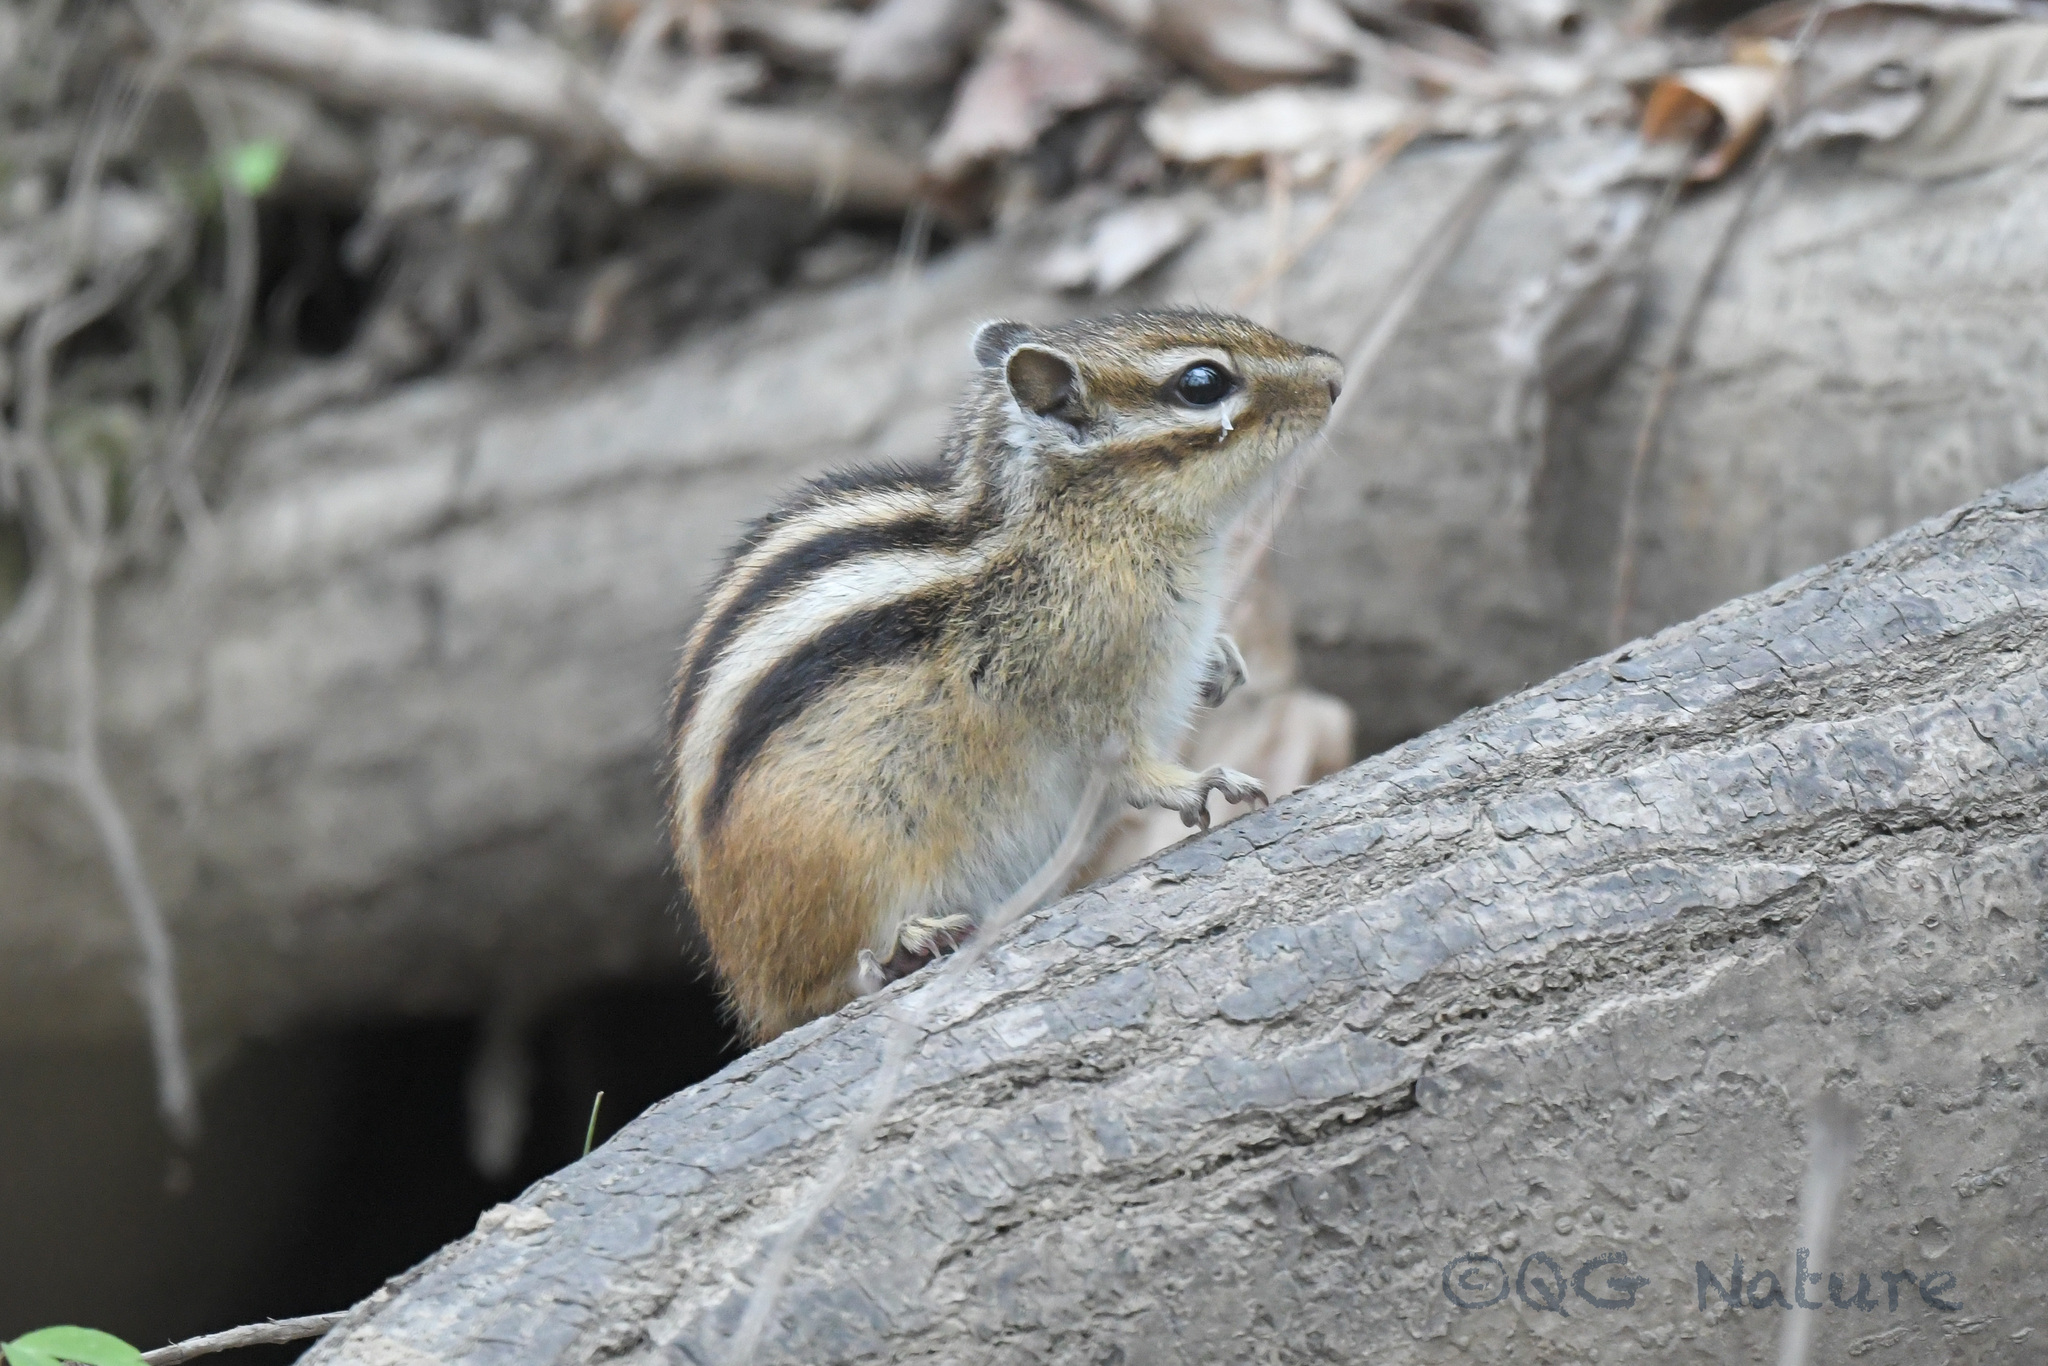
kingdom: Animalia
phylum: Chordata
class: Mammalia
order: Rodentia
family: Sciuridae
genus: Tamias
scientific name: Tamias sibiricus
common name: Siberian chipmunk
